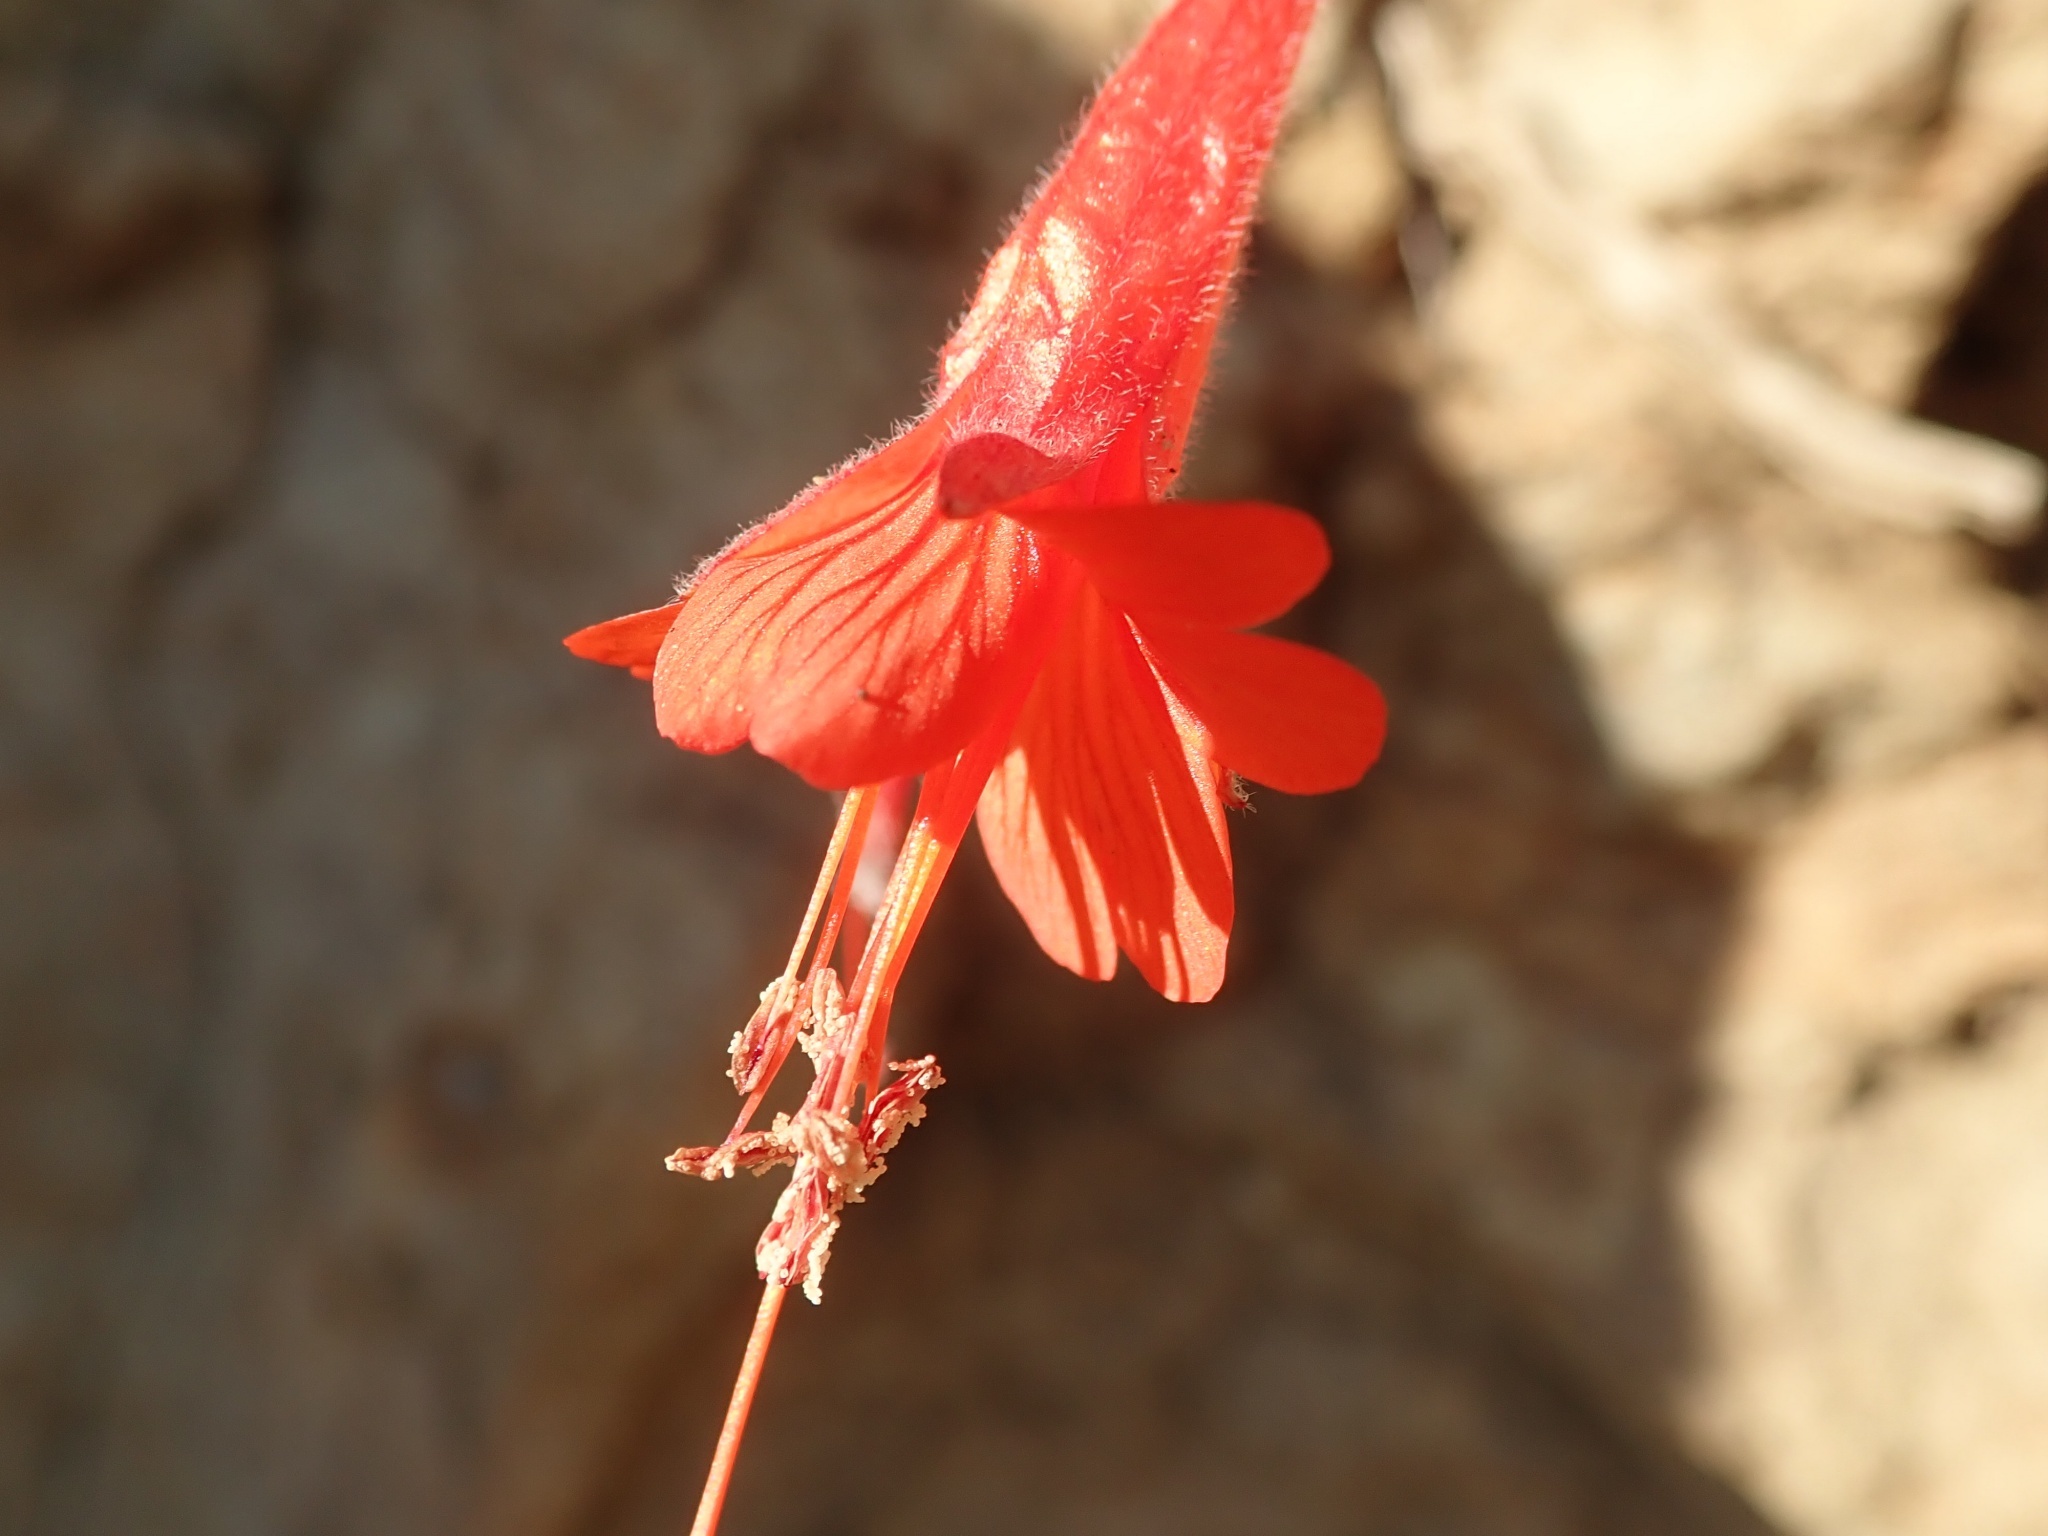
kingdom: Plantae
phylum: Tracheophyta
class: Magnoliopsida
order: Myrtales
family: Onagraceae
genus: Epilobium
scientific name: Epilobium canum
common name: California-fuchsia
